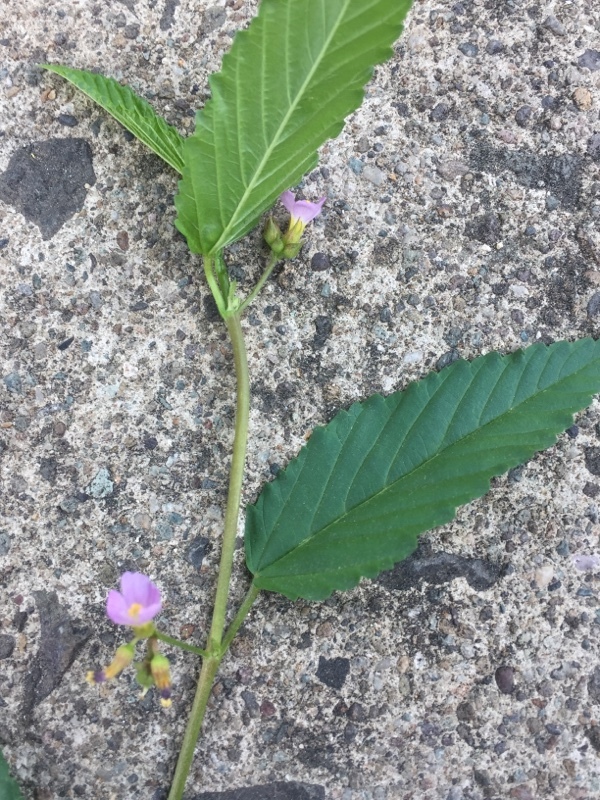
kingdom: Plantae
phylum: Tracheophyta
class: Magnoliopsida
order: Malvales
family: Malvaceae
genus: Melochia
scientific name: Melochia pyramidata
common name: Pyramidflower
